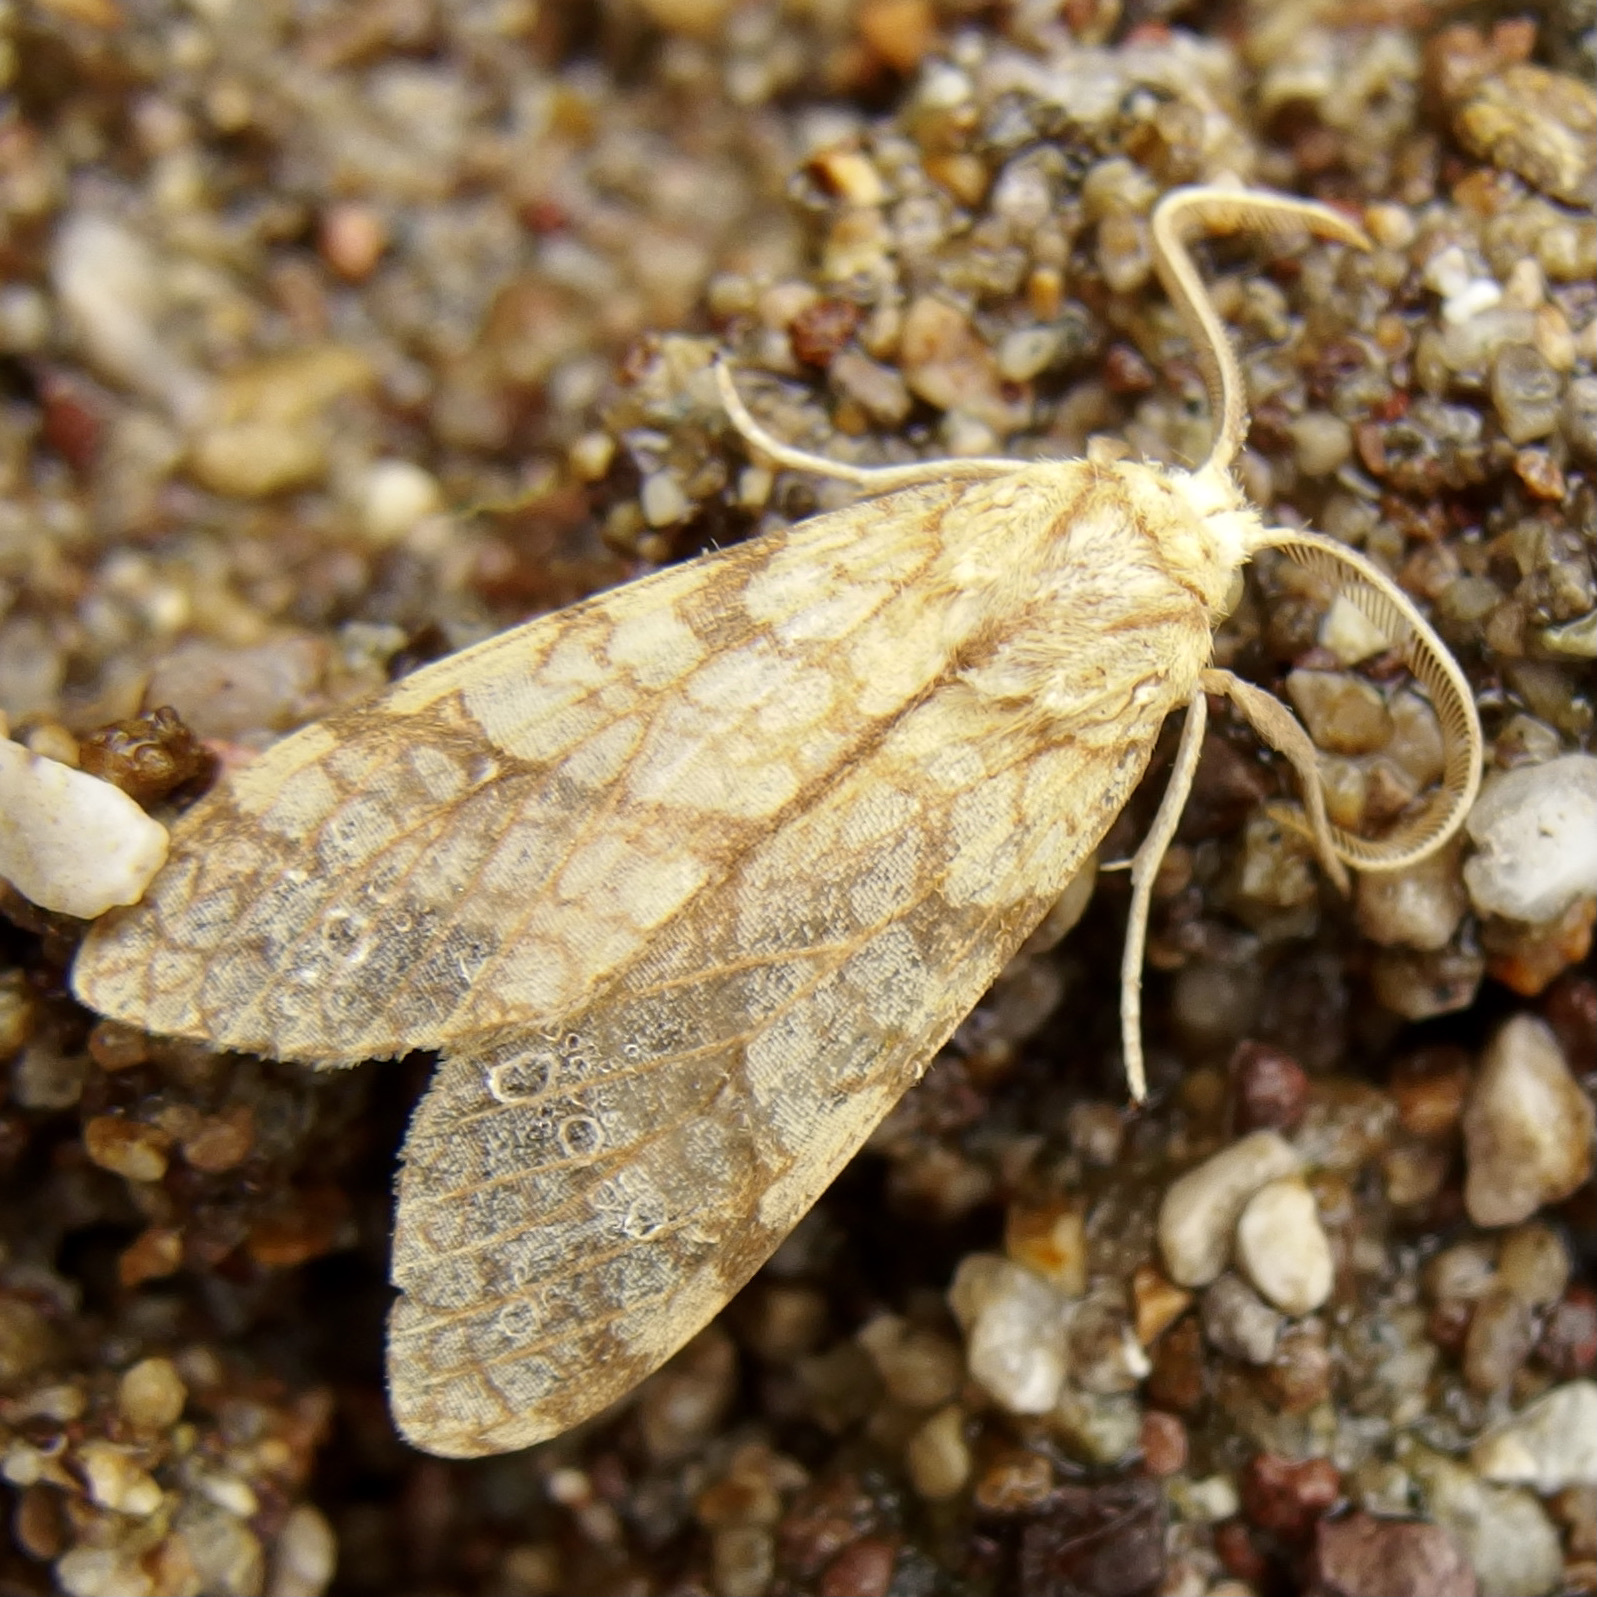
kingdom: Animalia
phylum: Arthropoda
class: Insecta
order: Lepidoptera
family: Erebidae
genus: Lophocampa
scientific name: Lophocampa annulosa
